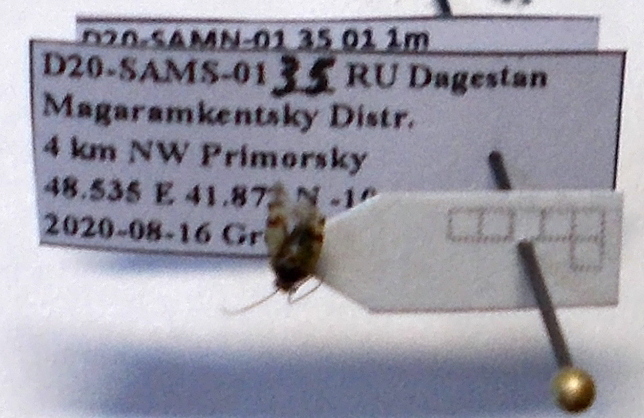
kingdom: Animalia
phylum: Arthropoda
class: Insecta
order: Hemiptera
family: Miridae
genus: Deraeocoris
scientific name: Deraeocoris serenus
